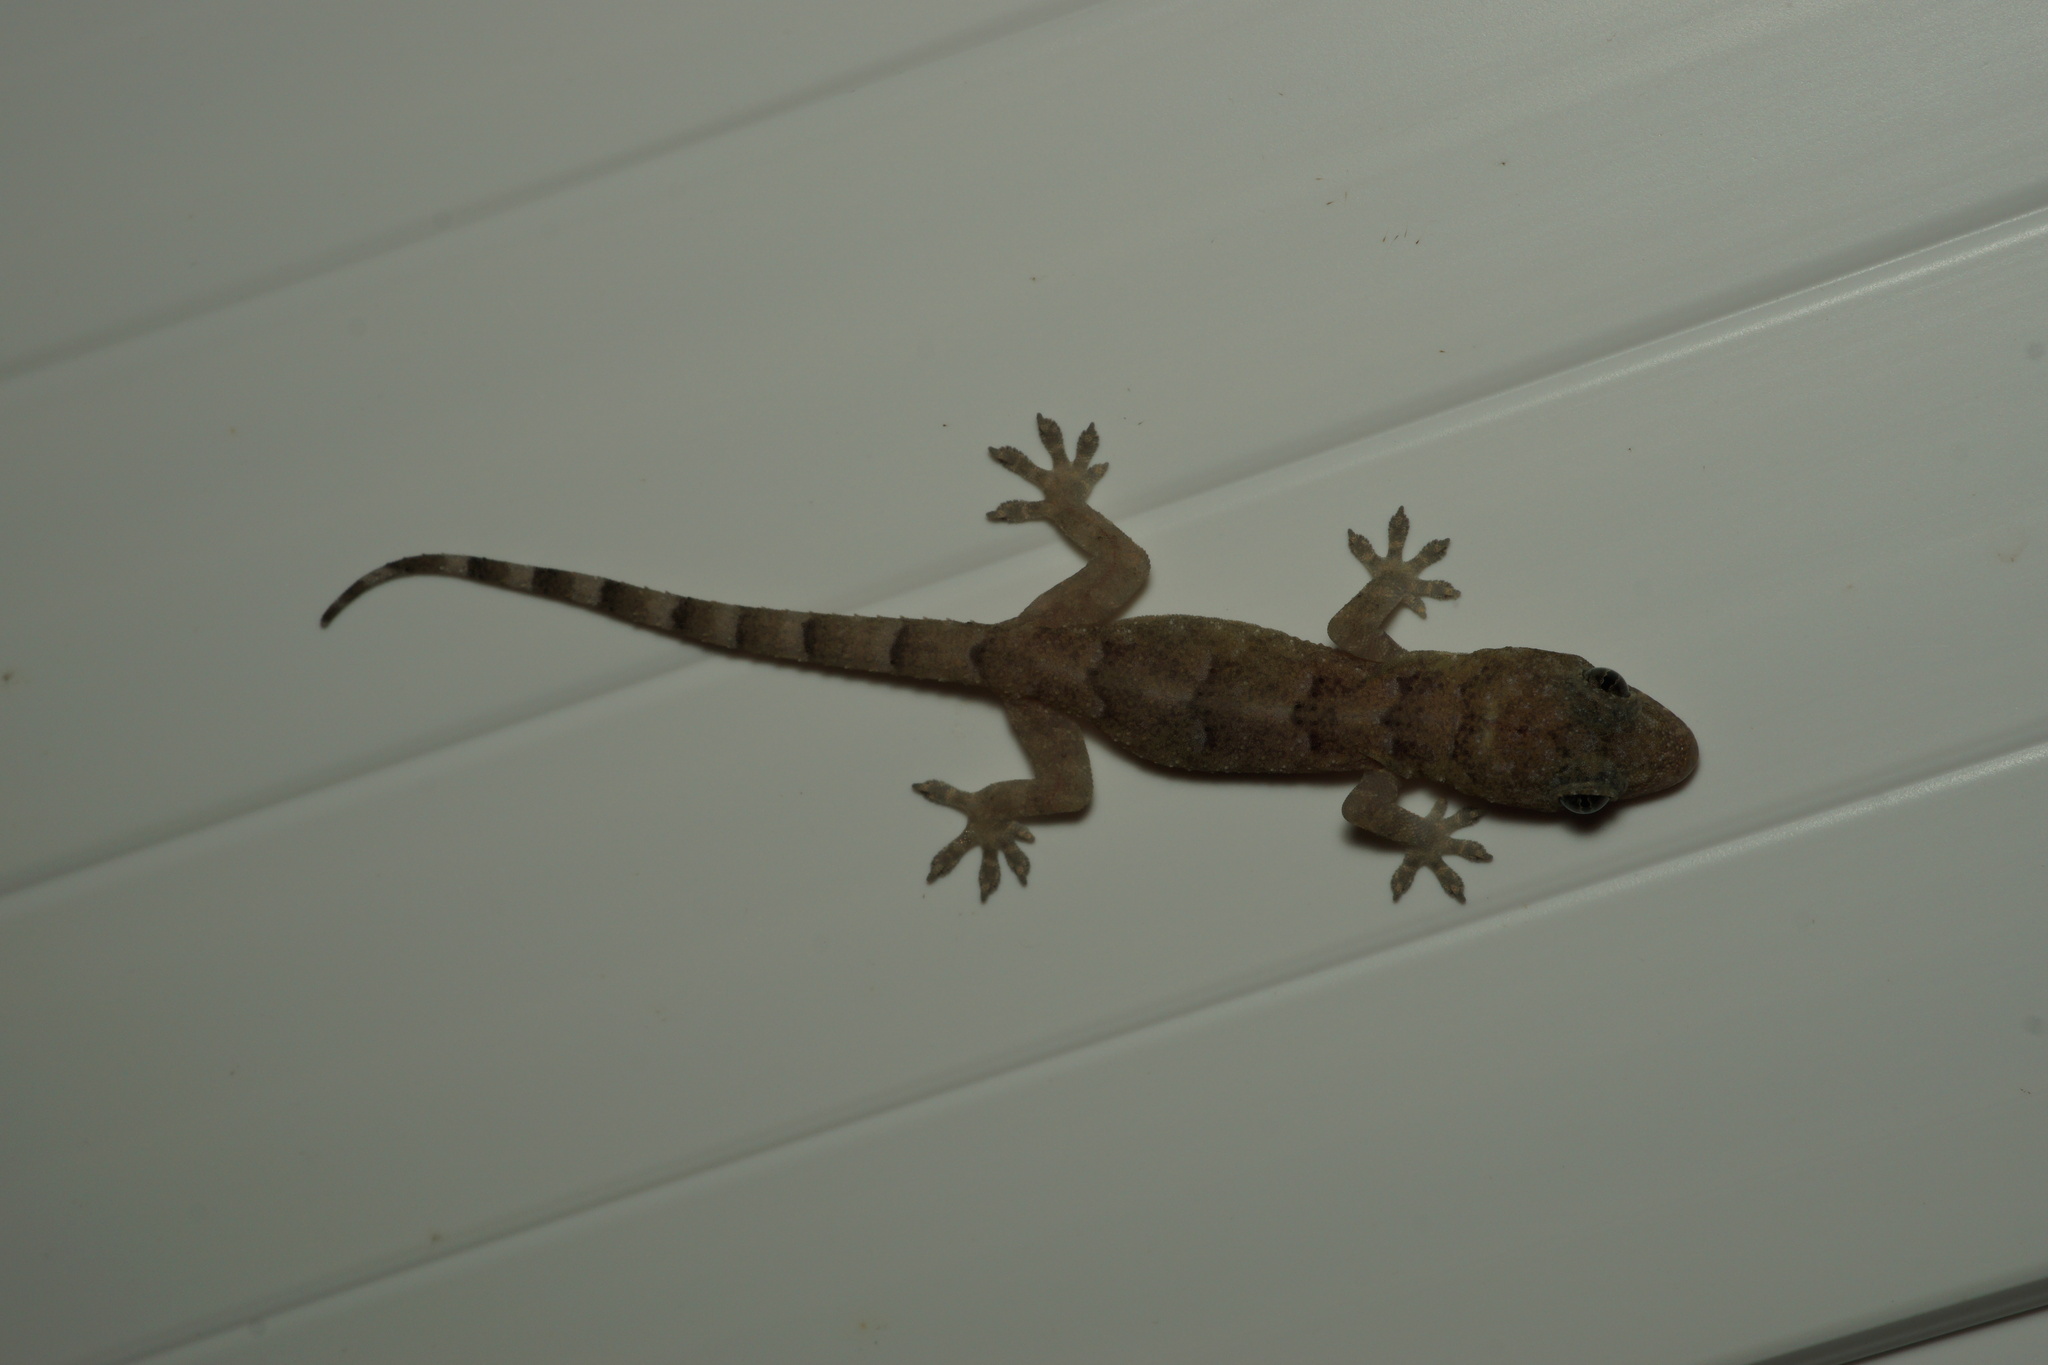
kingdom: Animalia
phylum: Chordata
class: Squamata
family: Gekkonidae
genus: Hemidactylus
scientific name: Hemidactylus mabouia
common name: House gecko
